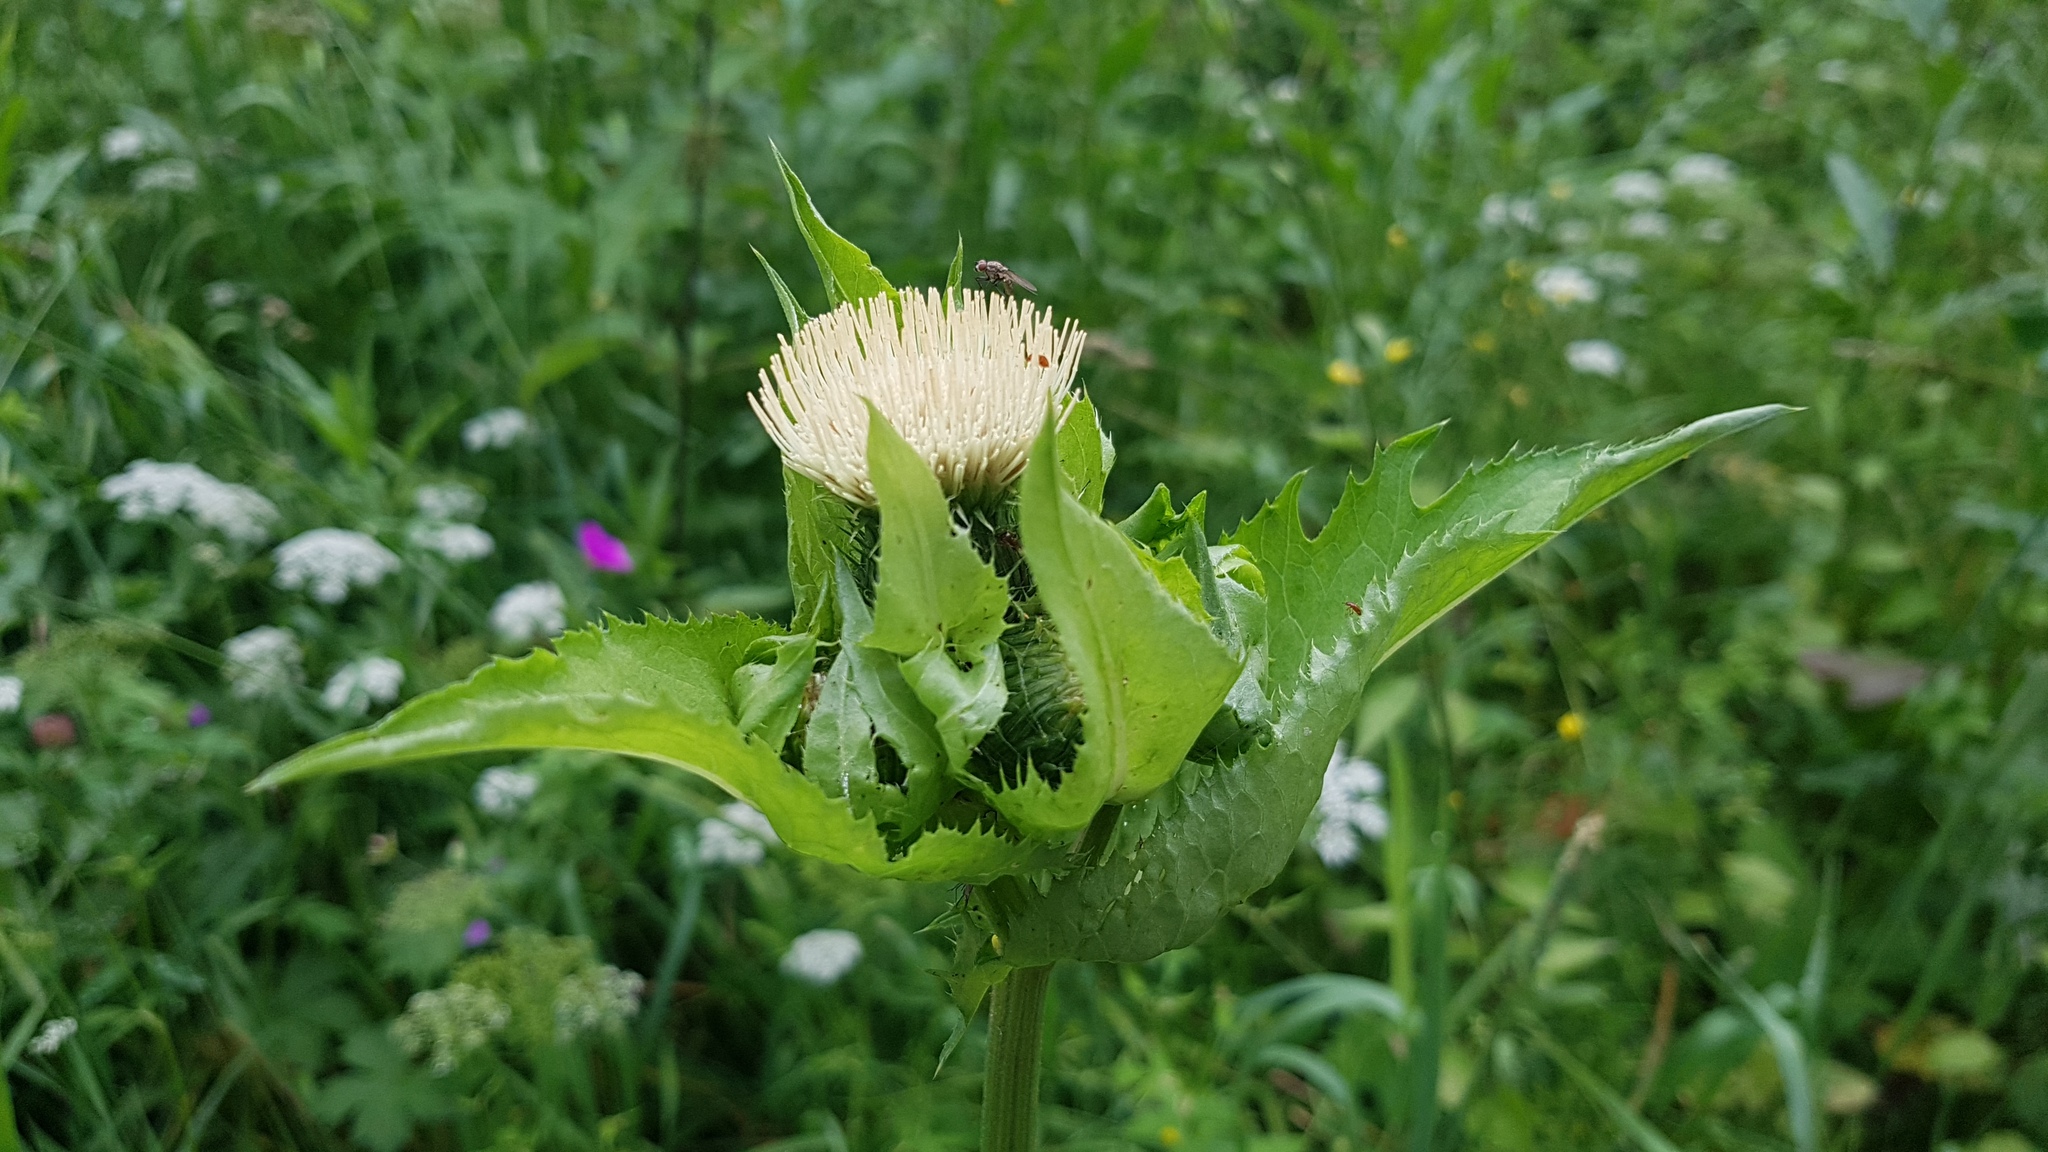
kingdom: Plantae
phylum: Tracheophyta
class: Magnoliopsida
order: Asterales
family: Asteraceae
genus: Cirsium
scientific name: Cirsium oleraceum
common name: Cabbage thistle
